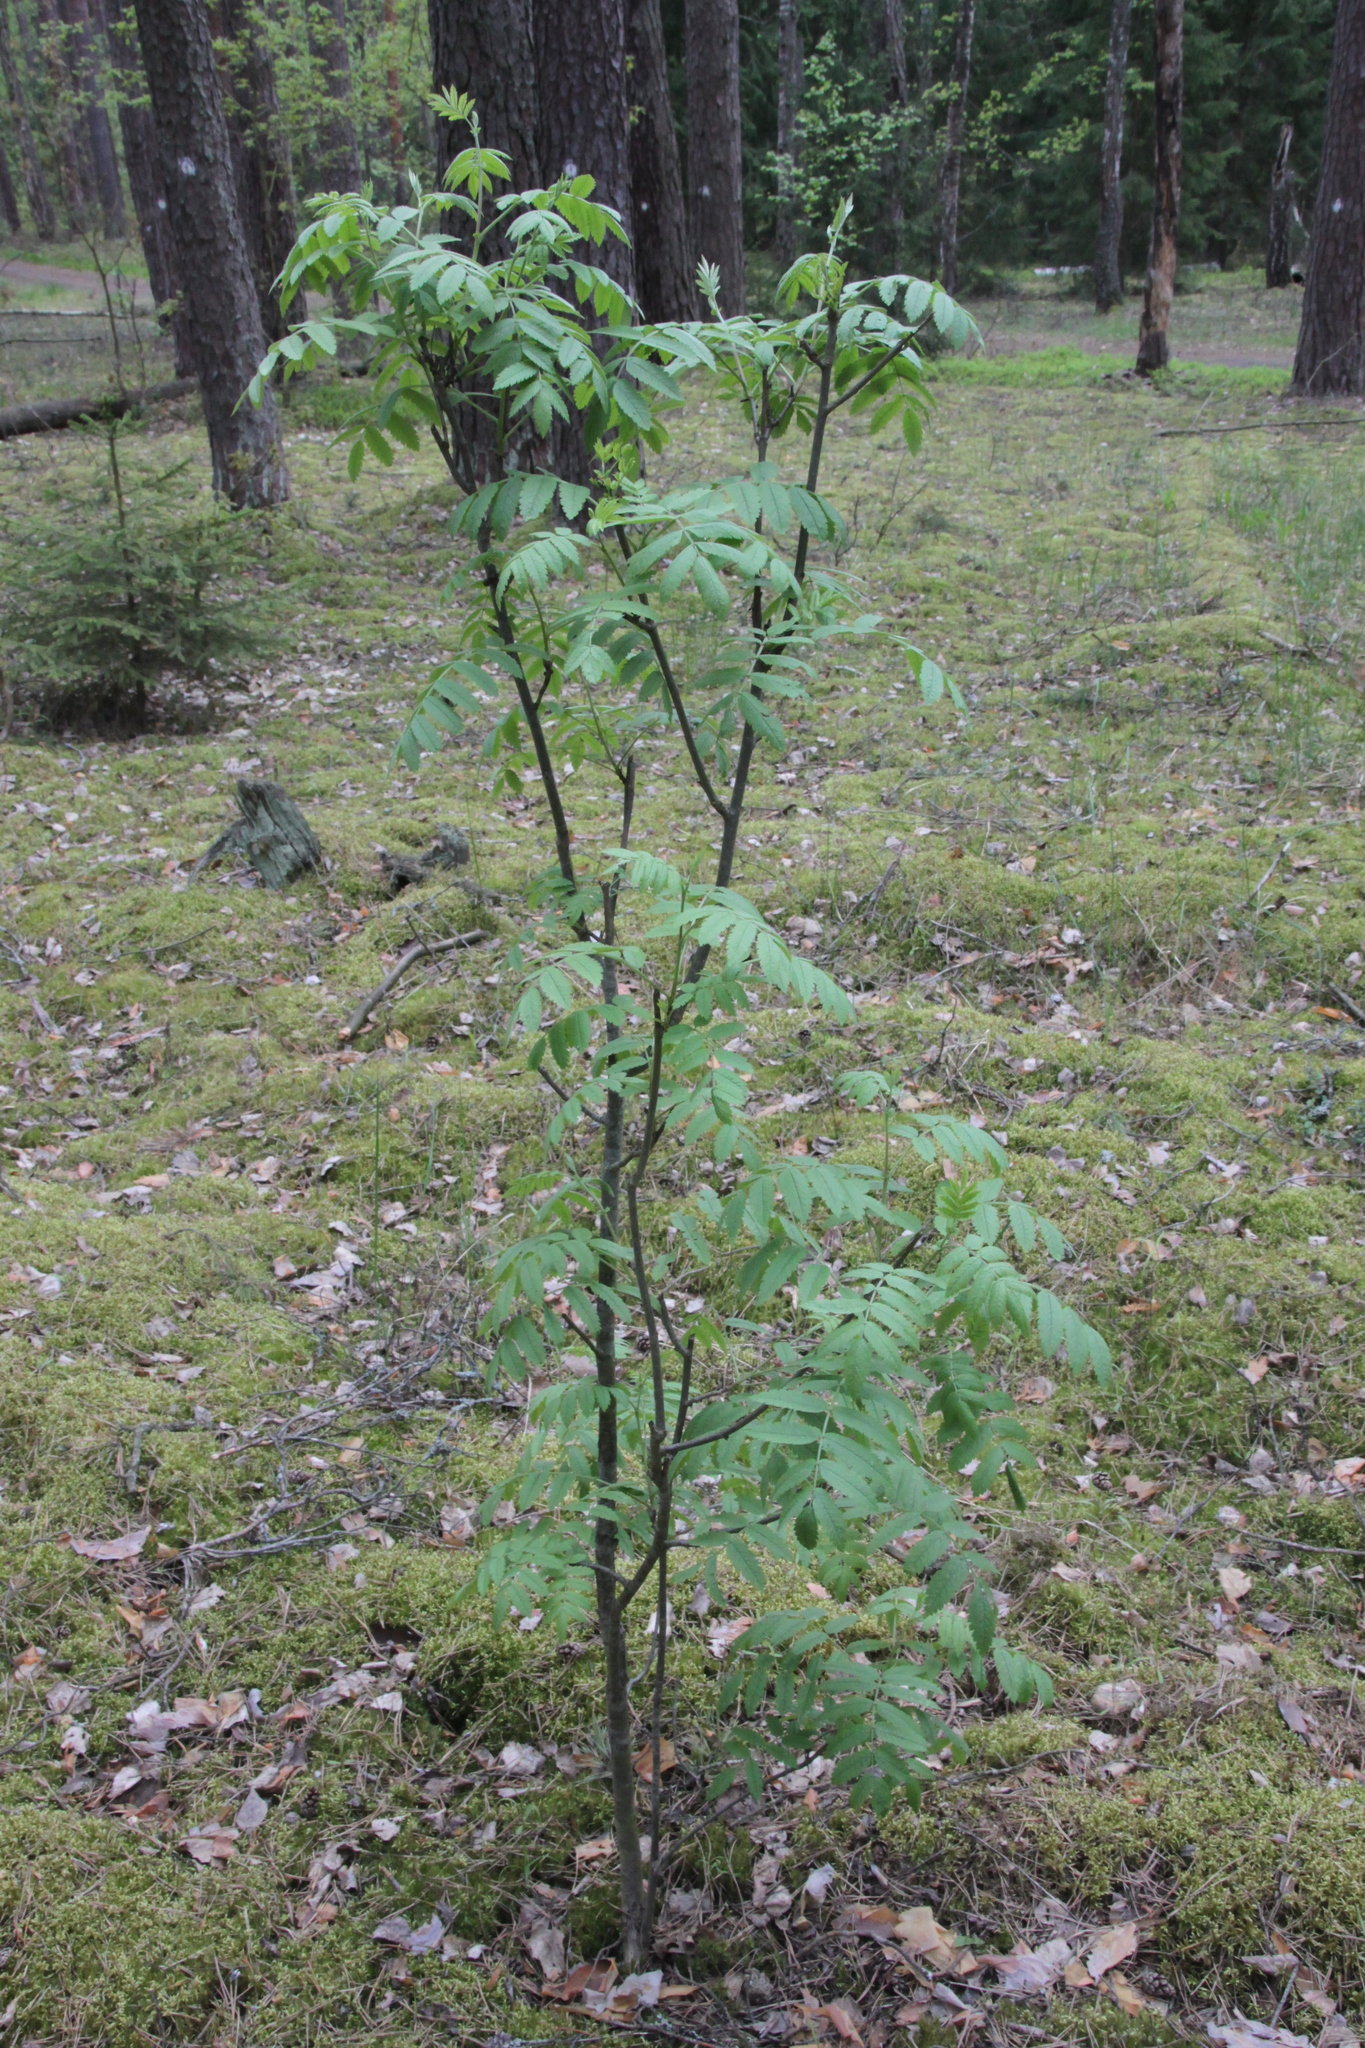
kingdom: Plantae
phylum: Tracheophyta
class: Magnoliopsida
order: Rosales
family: Rosaceae
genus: Sorbus
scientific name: Sorbus aucuparia
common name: Rowan
